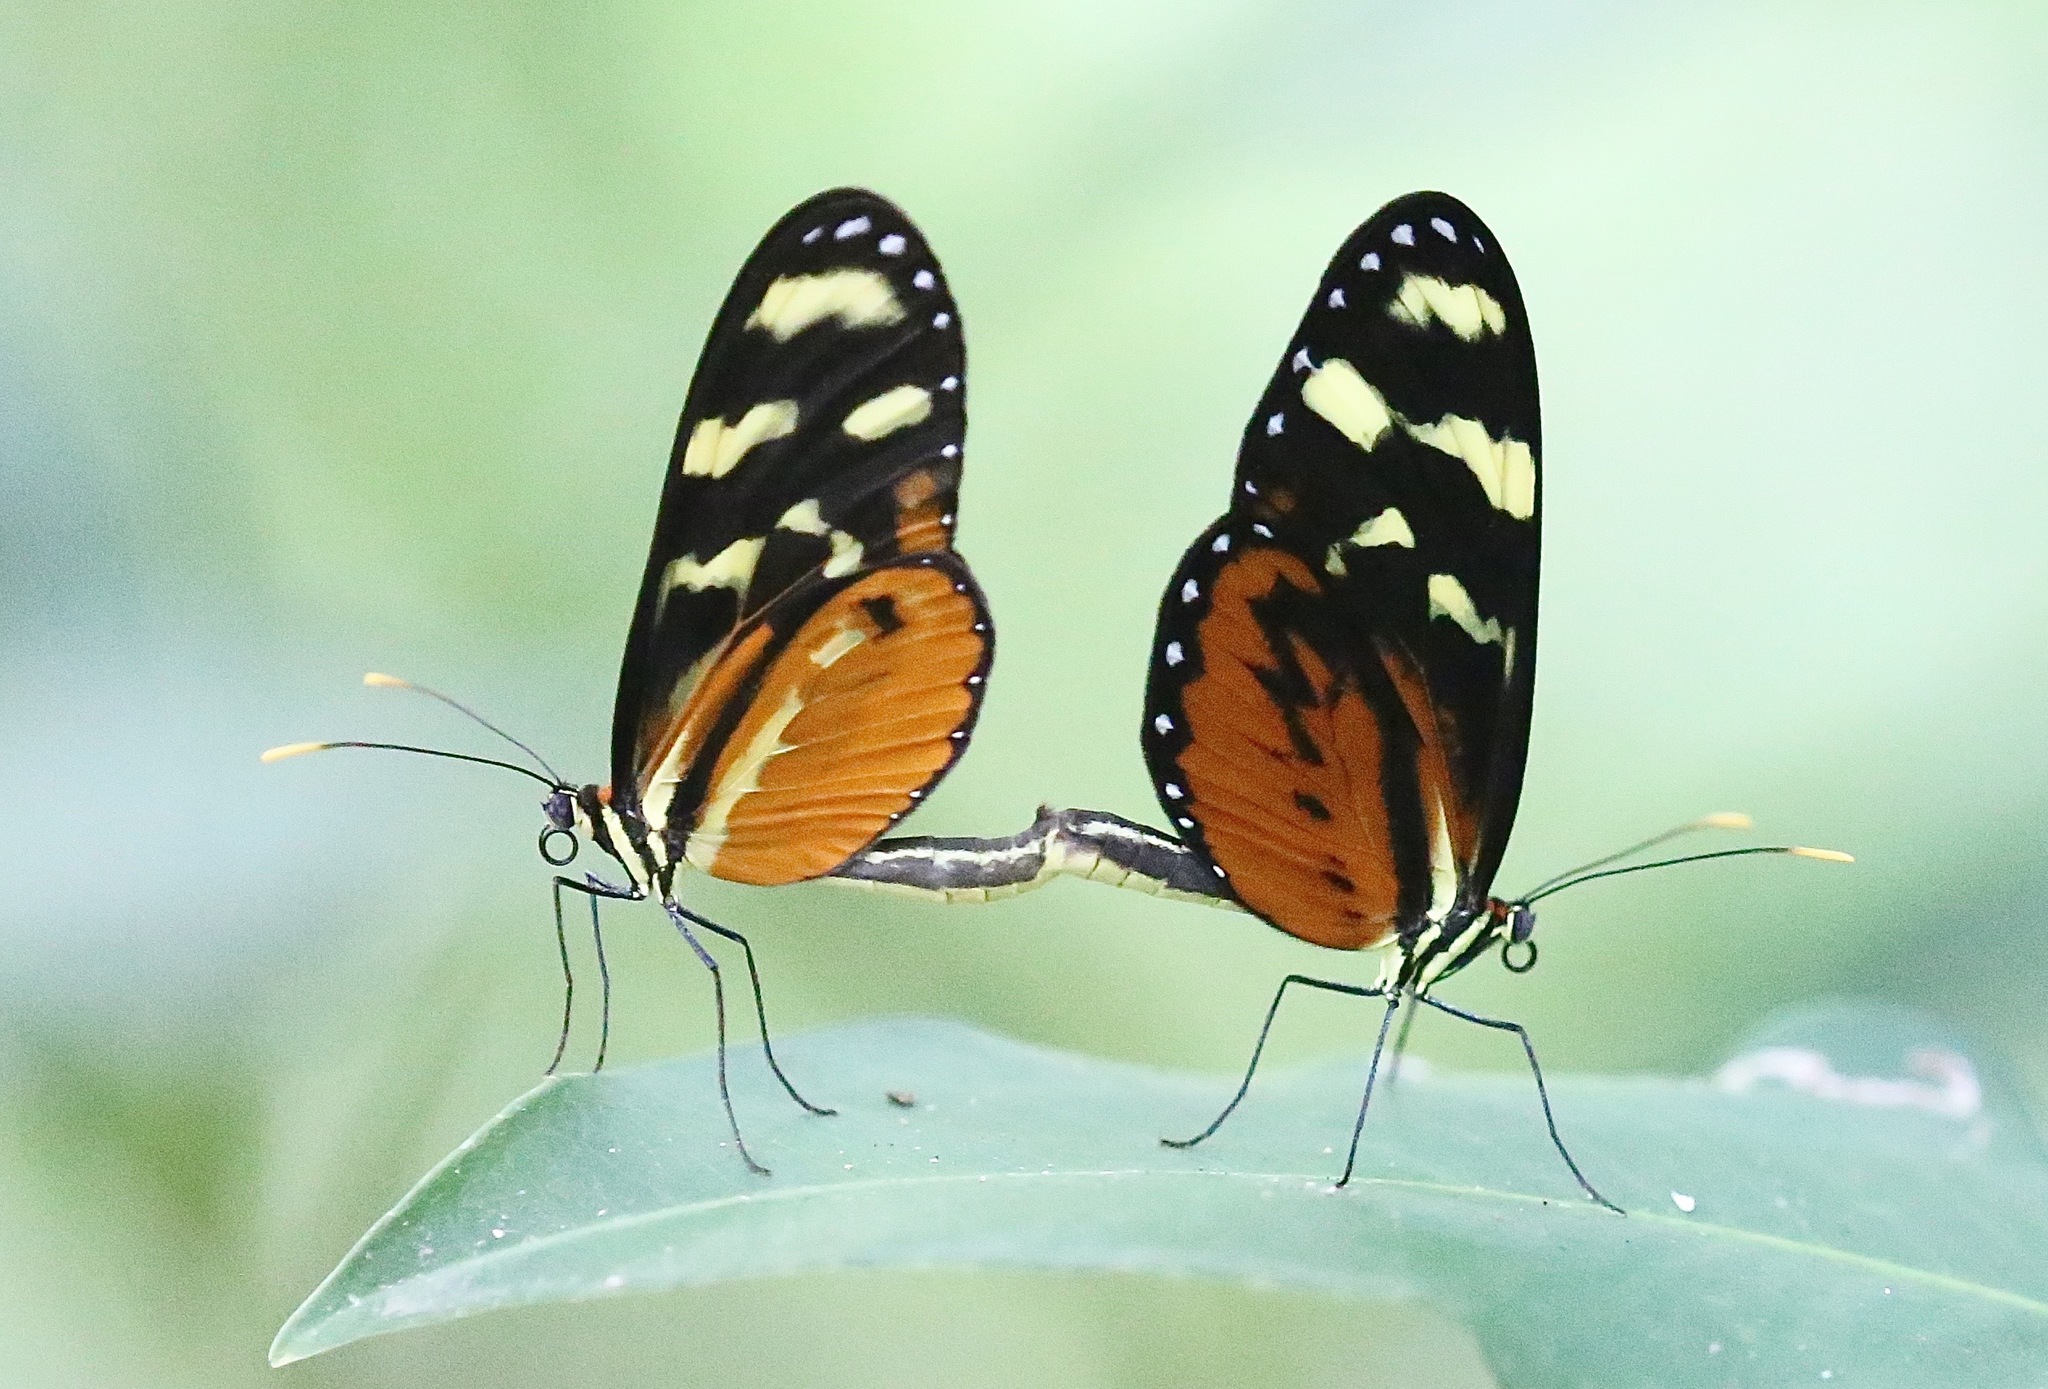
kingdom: Animalia
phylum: Arthropoda
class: Insecta
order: Lepidoptera
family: Nymphalidae
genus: Mechanitis
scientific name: Mechanitis polymnia
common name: Disturbed tigerwing
